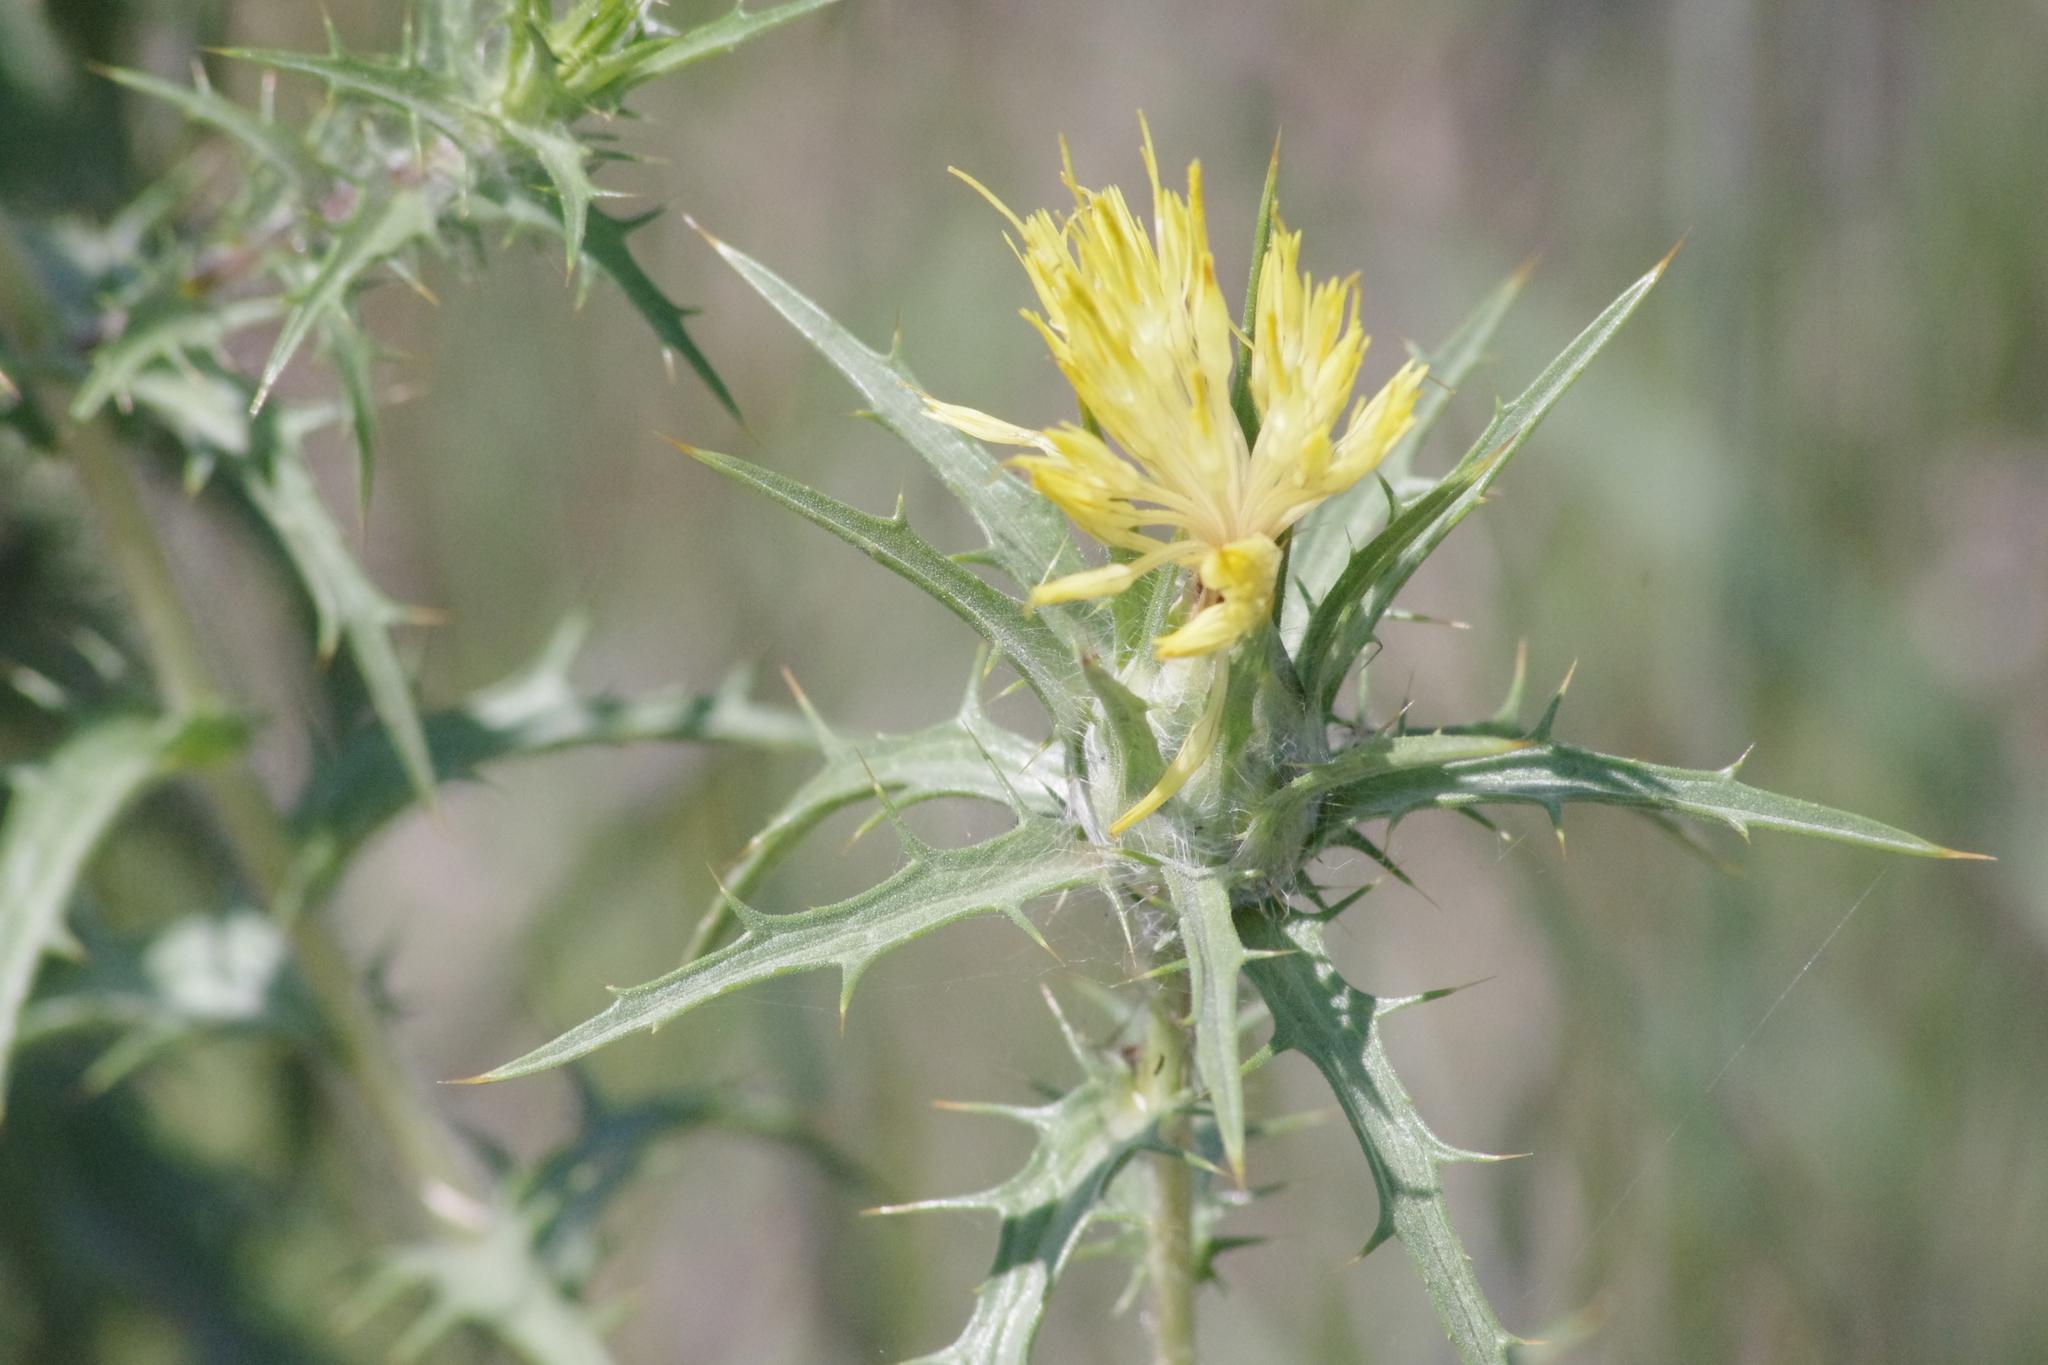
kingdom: Plantae
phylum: Tracheophyta
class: Magnoliopsida
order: Asterales
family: Asteraceae
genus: Carthamus
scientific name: Carthamus lanatus
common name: Downy safflower
